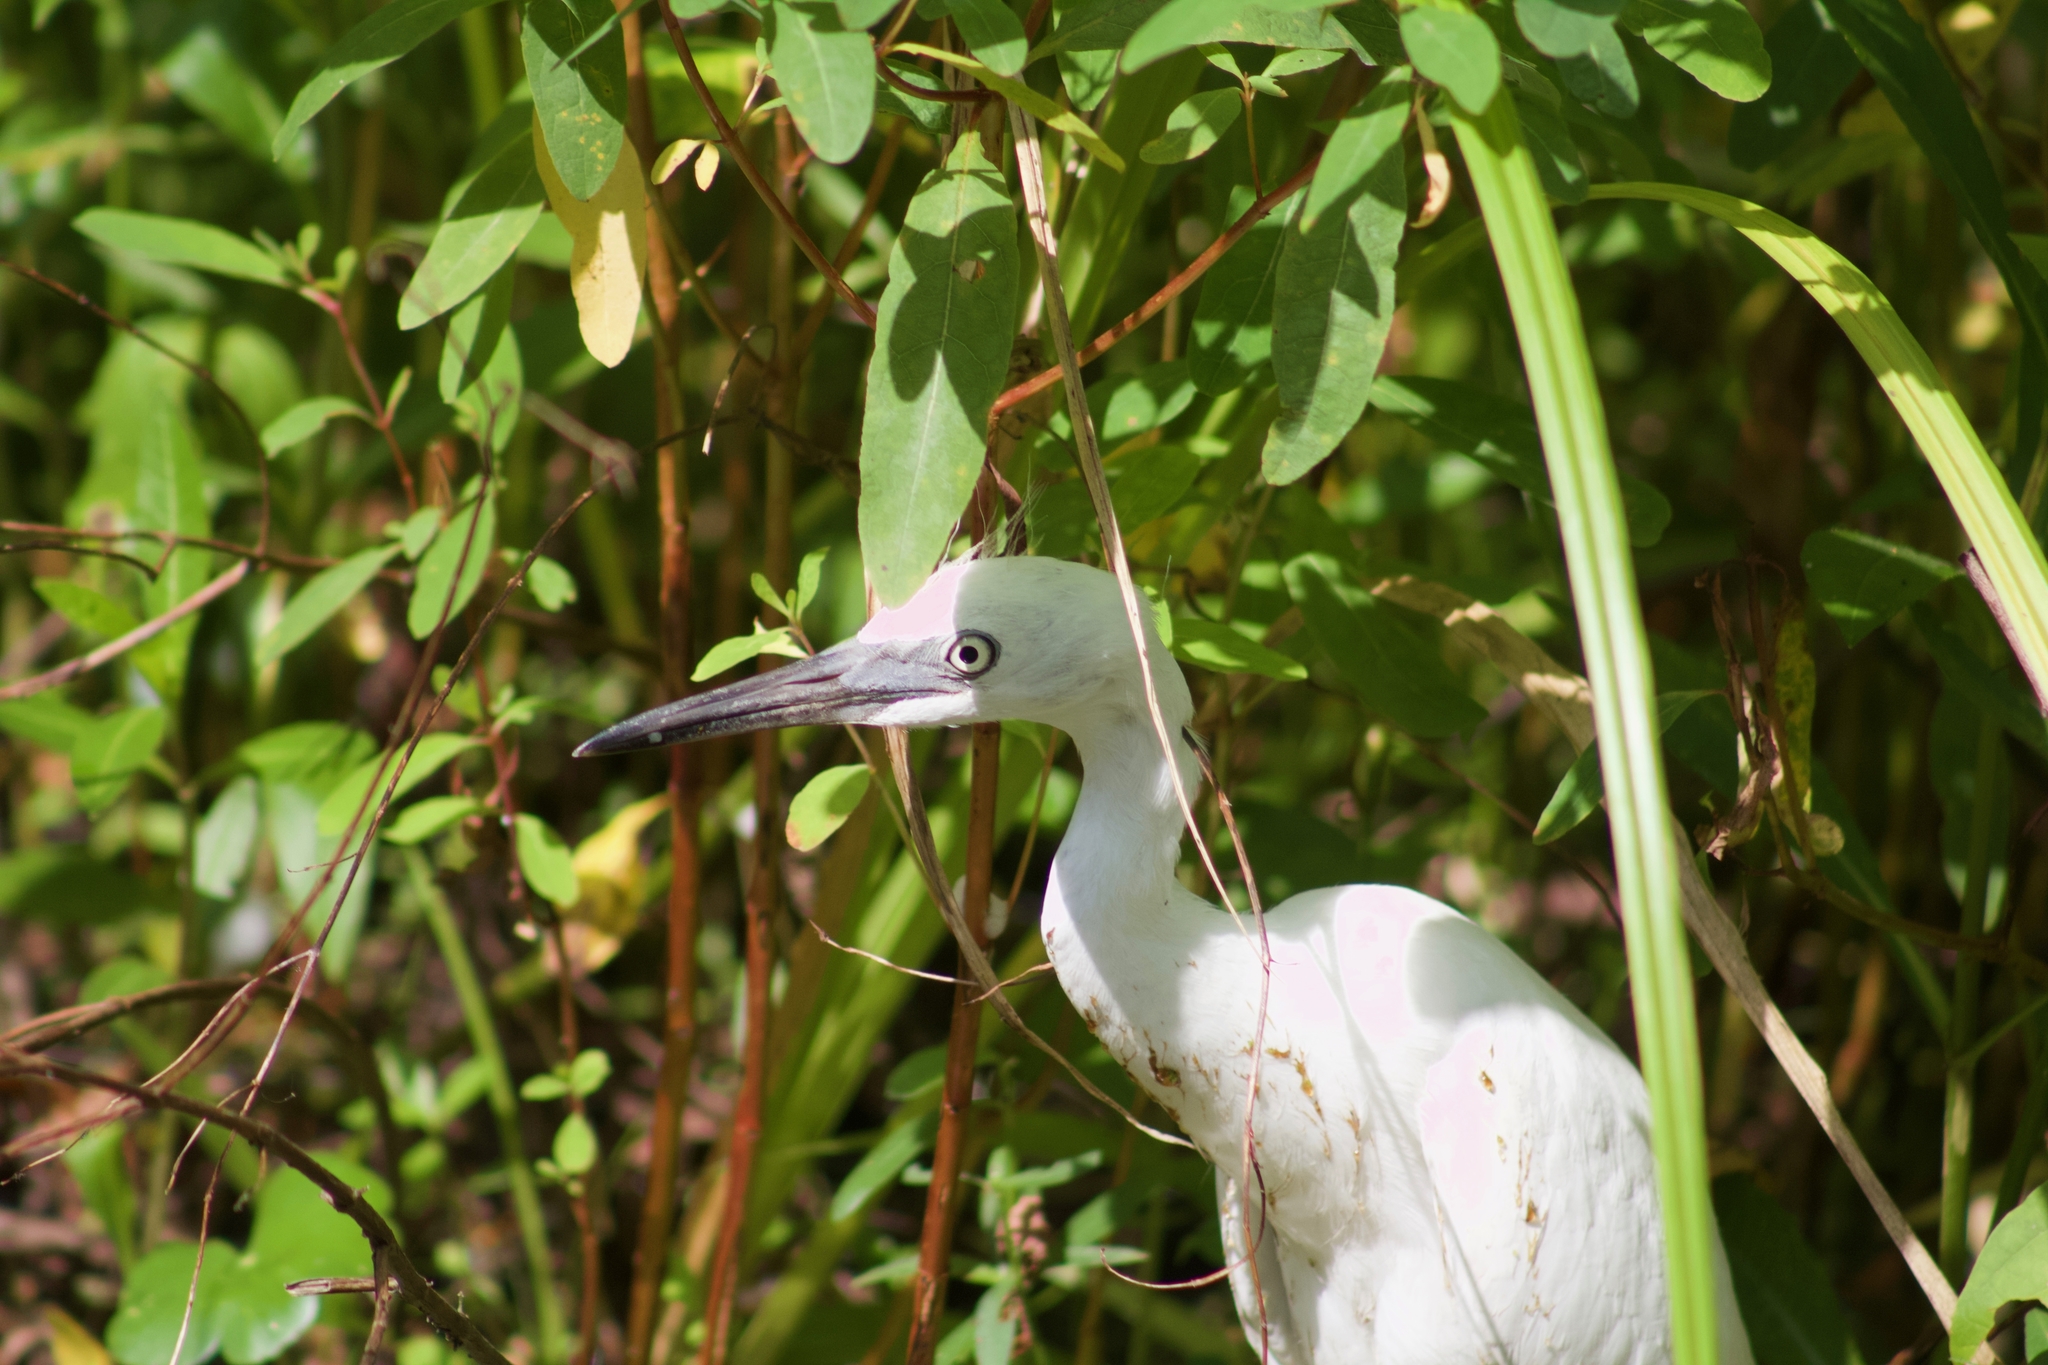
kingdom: Animalia
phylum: Chordata
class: Aves
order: Pelecaniformes
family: Ardeidae
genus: Egretta
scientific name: Egretta caerulea
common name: Little blue heron
